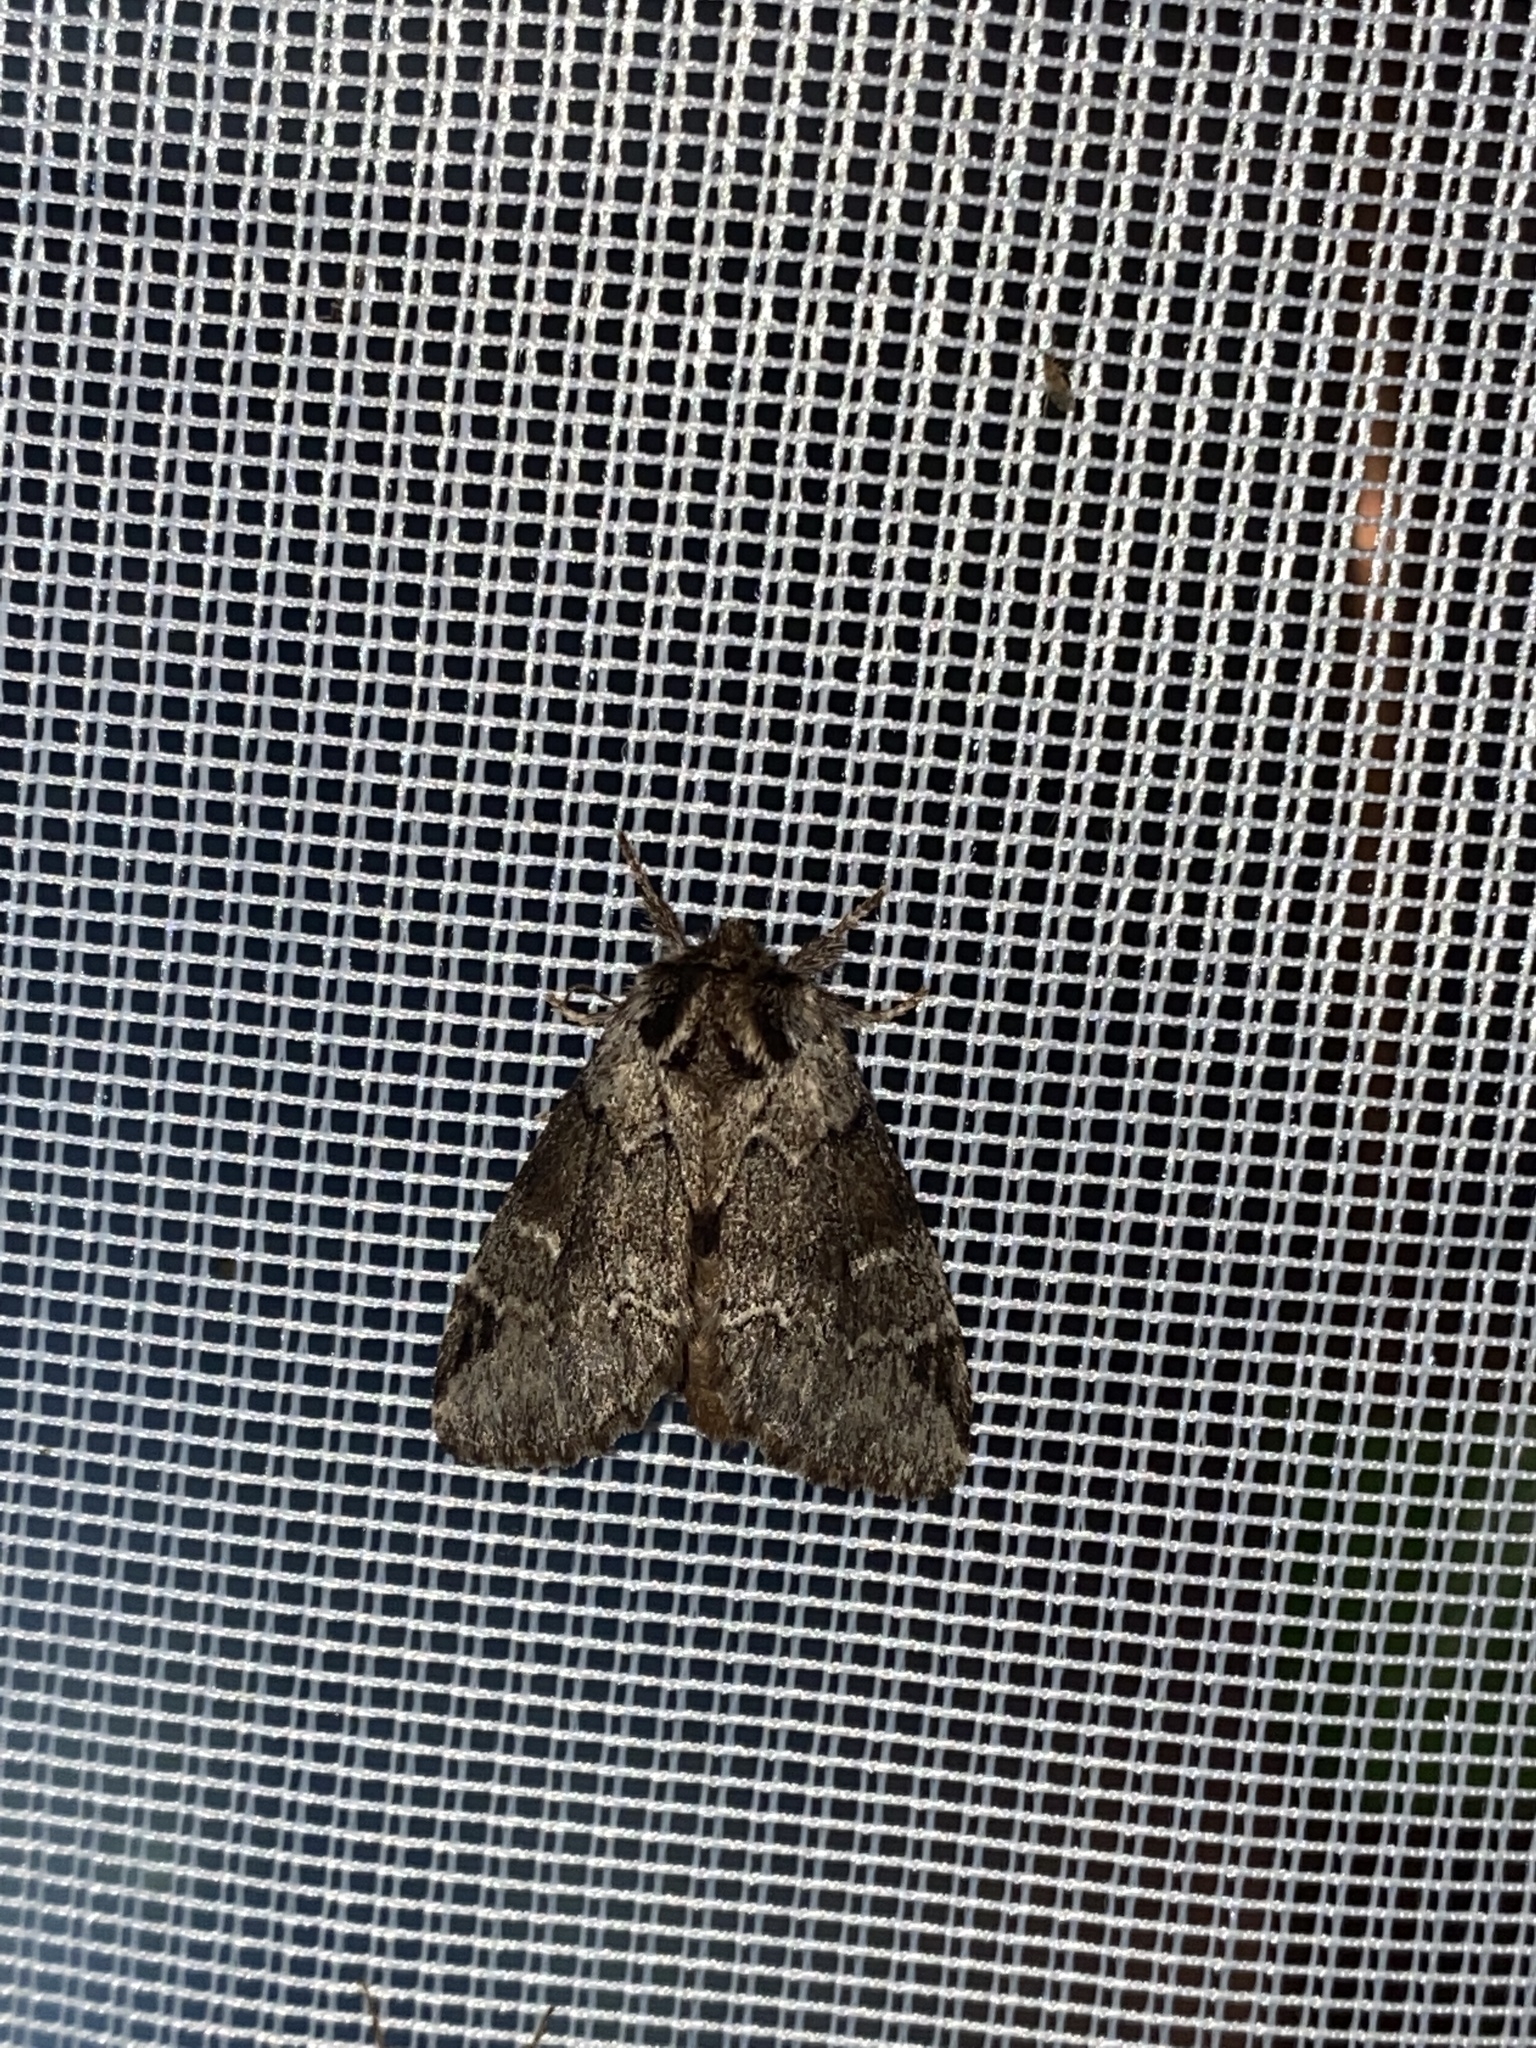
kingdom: Animalia
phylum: Arthropoda
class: Insecta
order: Lepidoptera
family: Notodontidae
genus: Drymonia
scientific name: Drymonia obliterata
